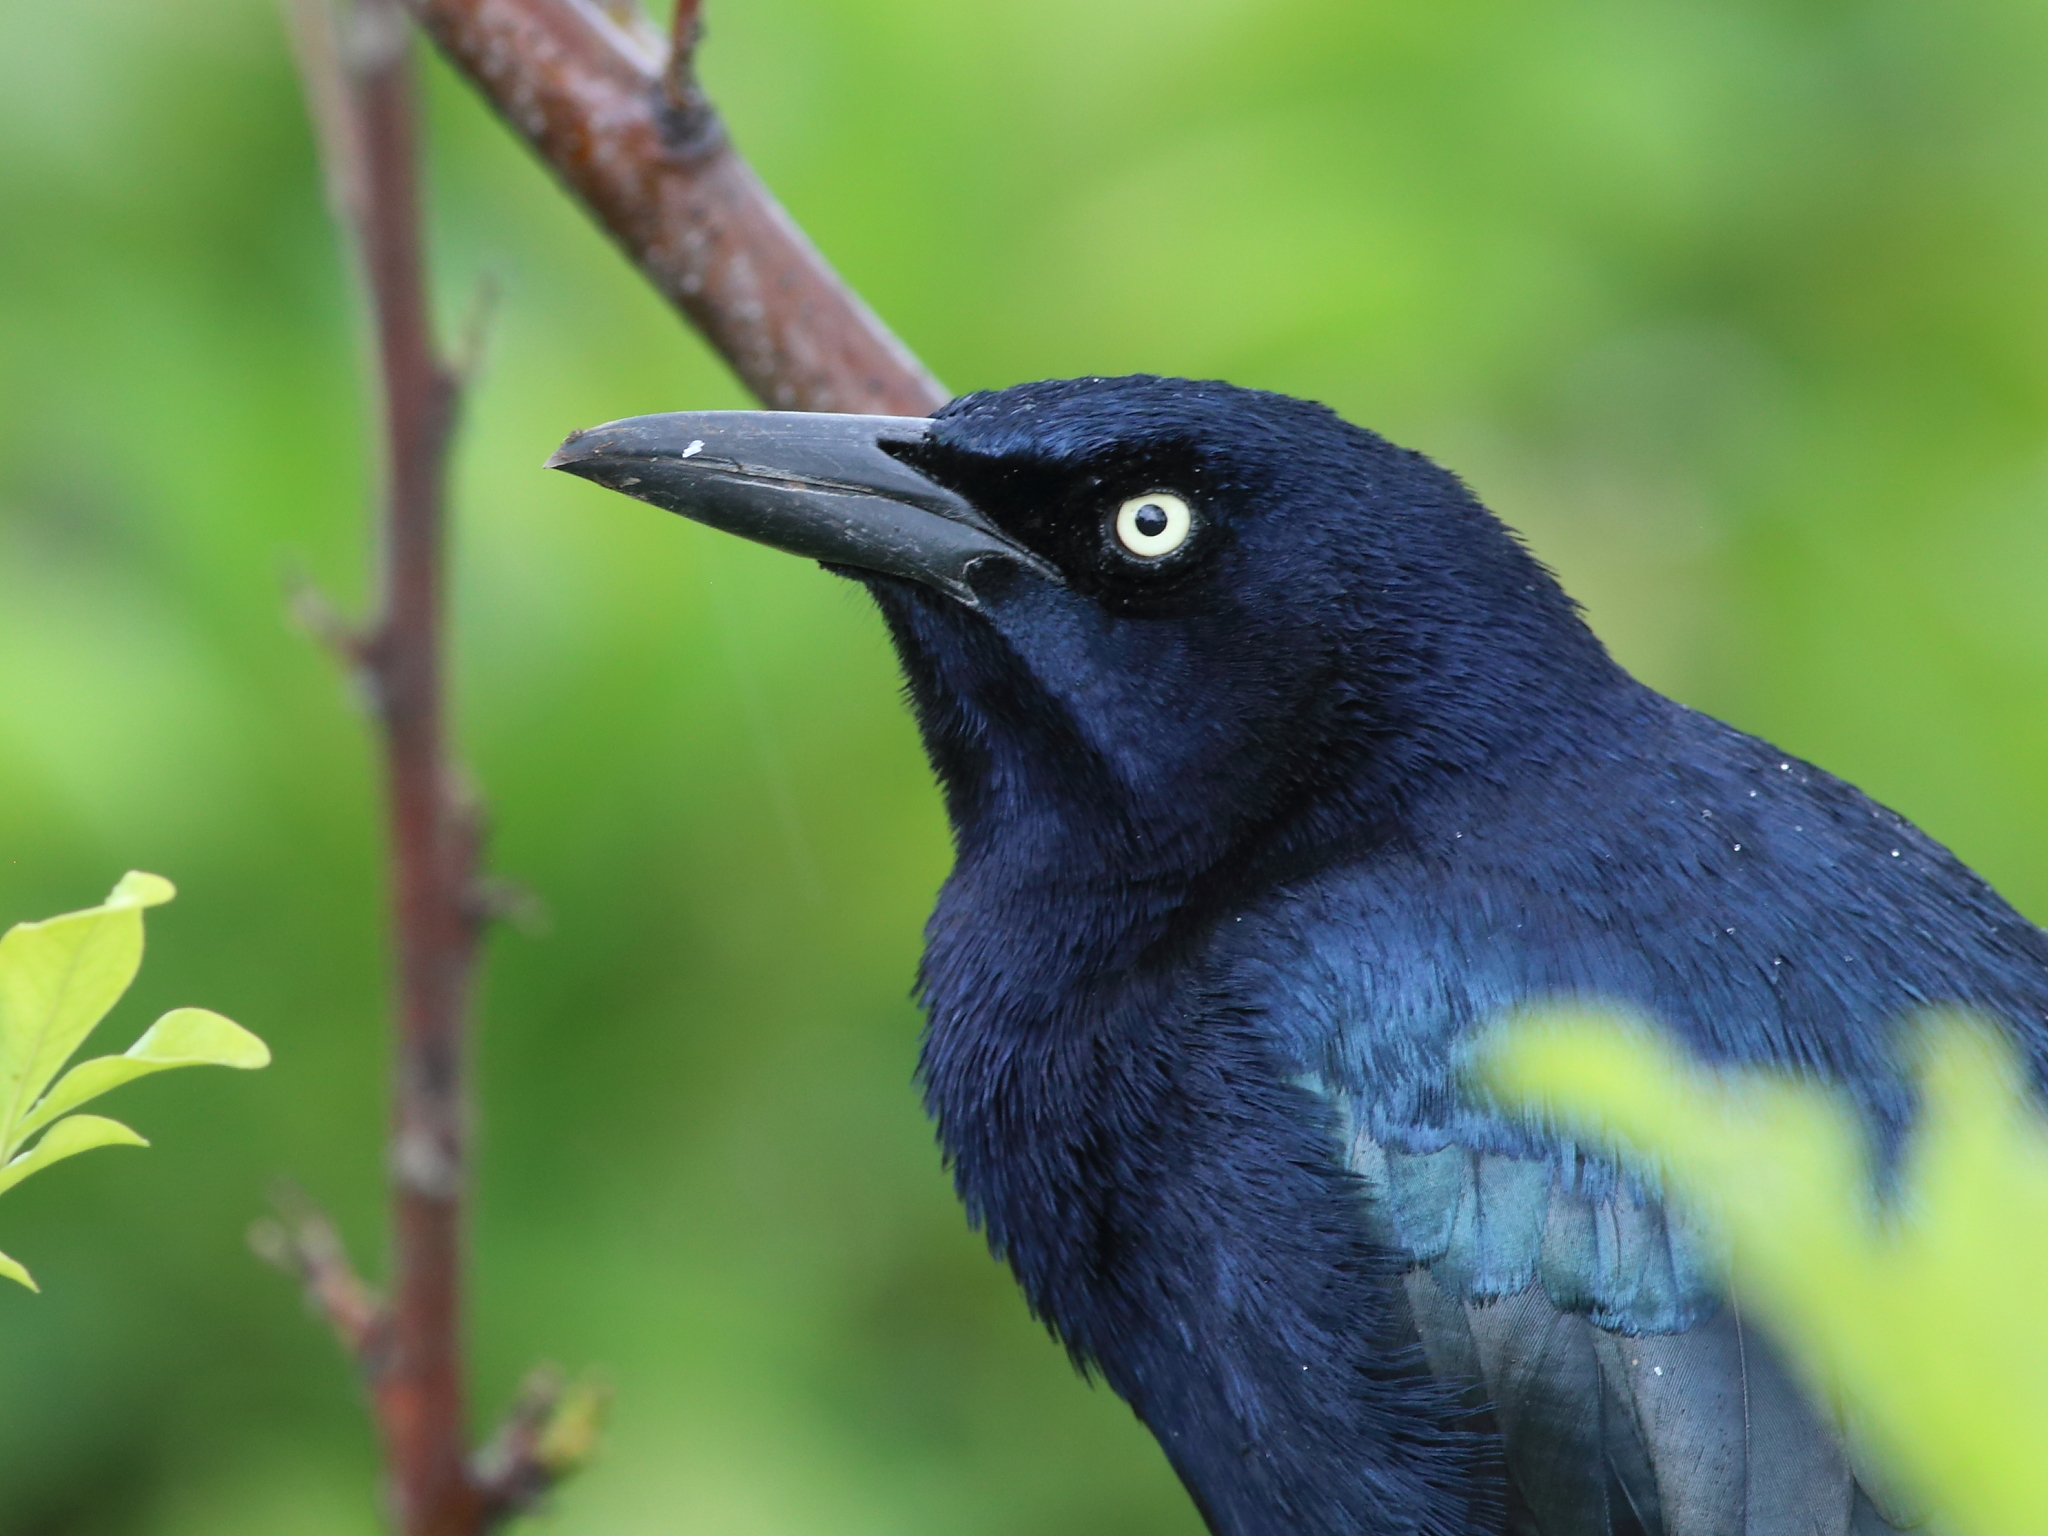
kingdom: Animalia
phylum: Chordata
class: Aves
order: Passeriformes
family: Icteridae
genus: Quiscalus
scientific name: Quiscalus mexicanus
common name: Great-tailed grackle
